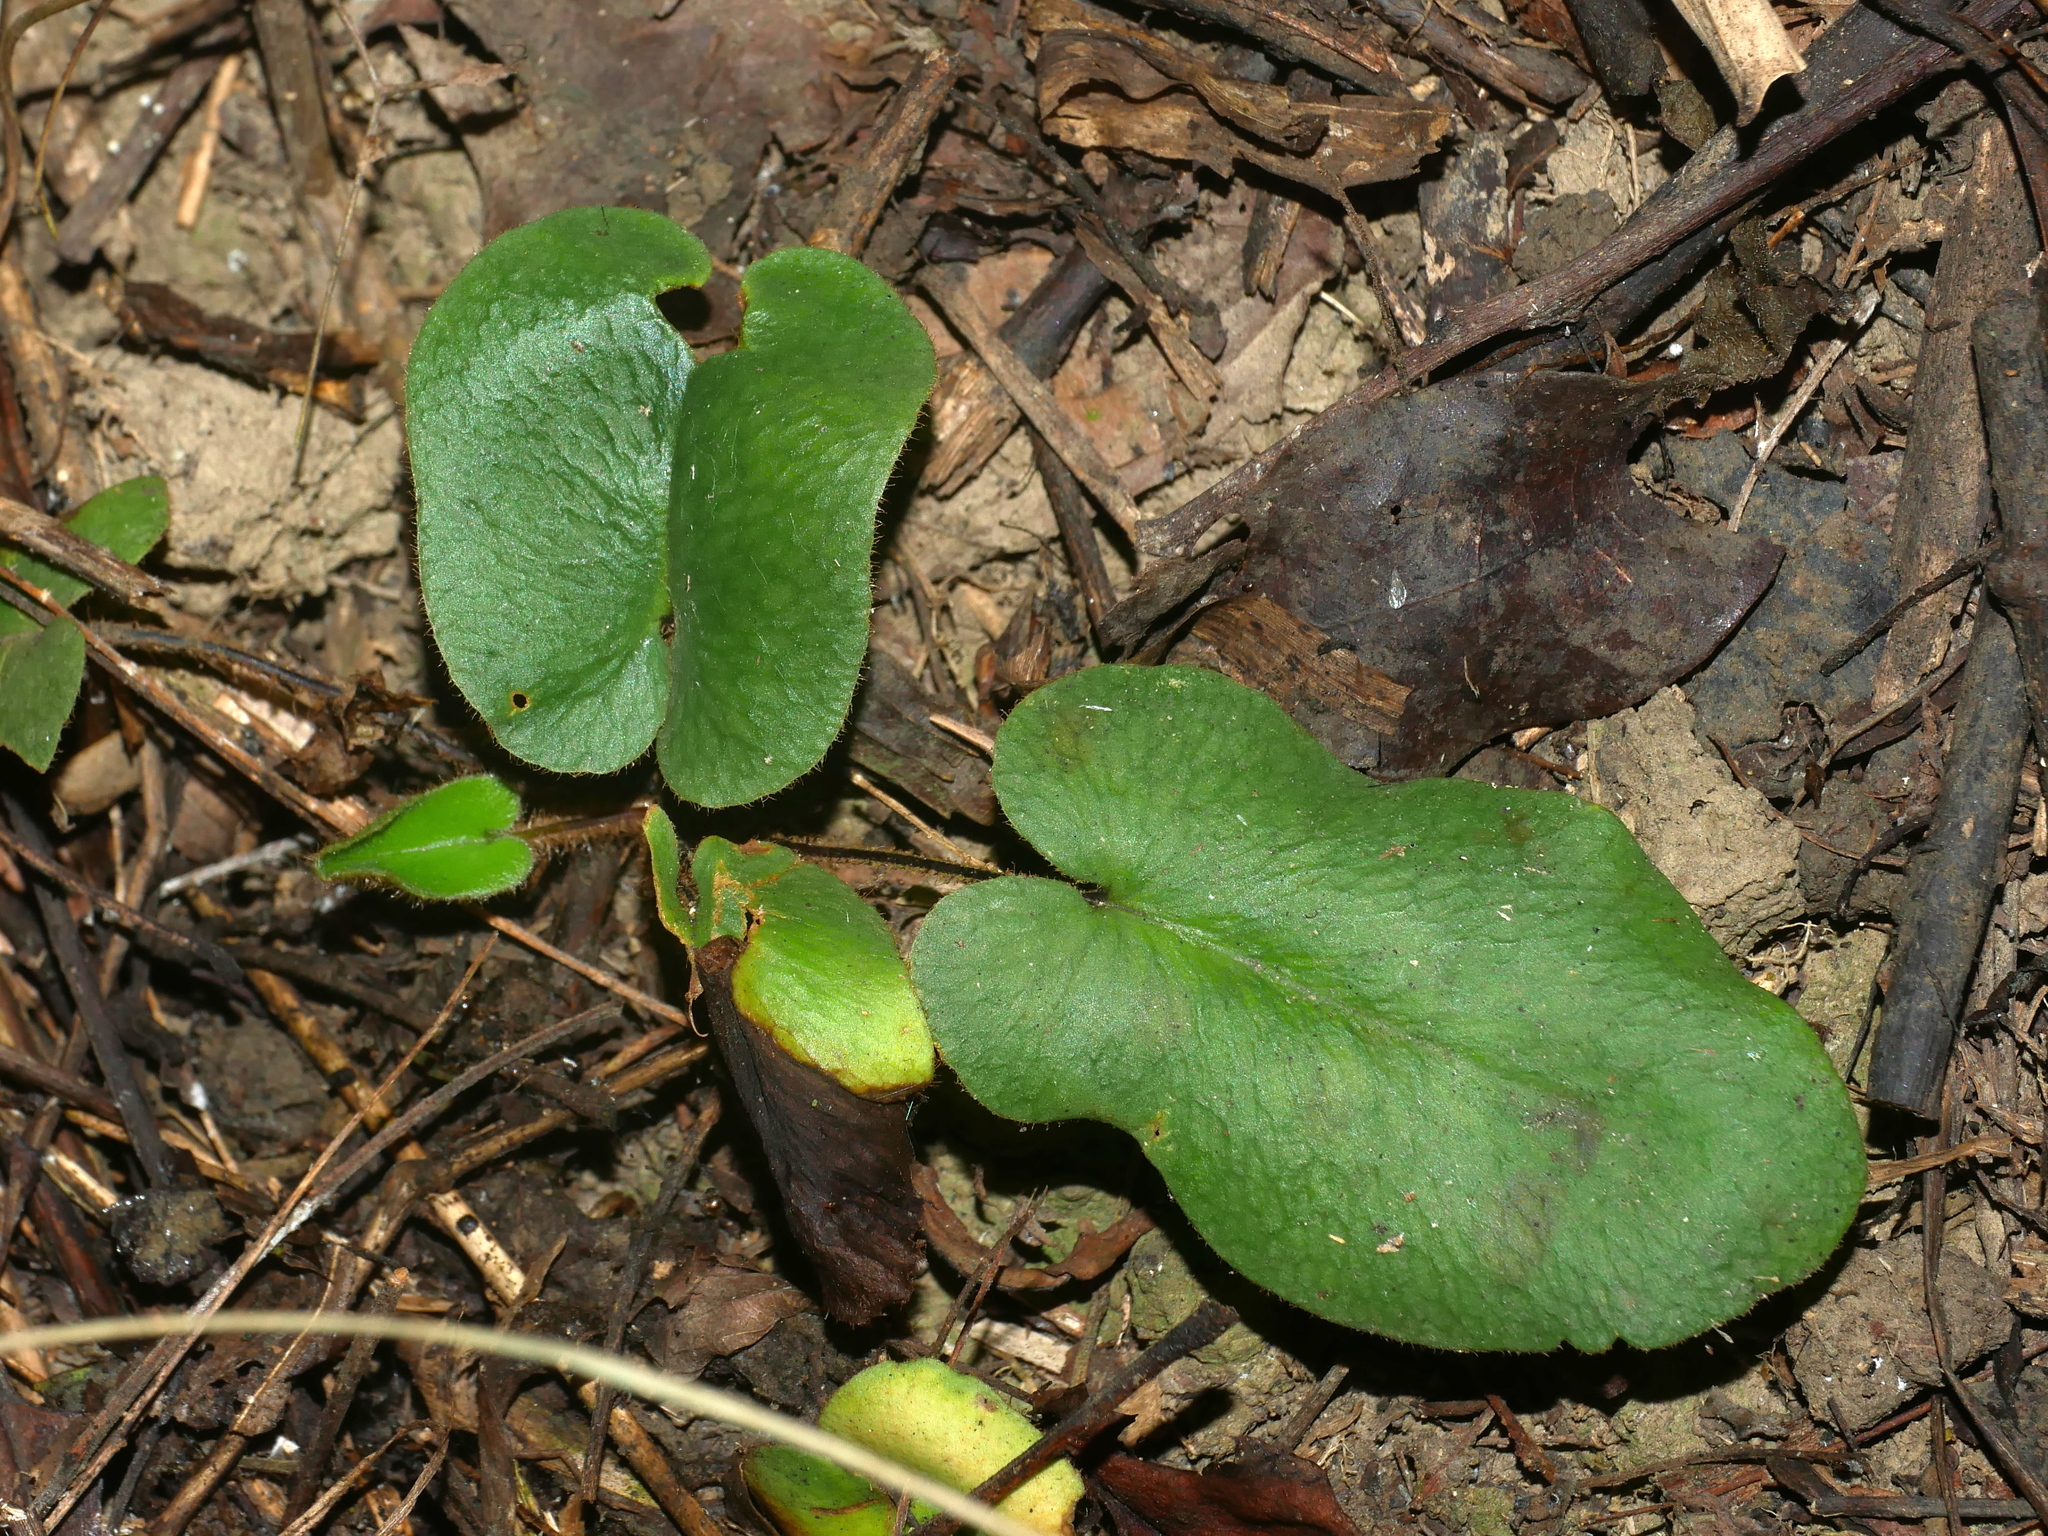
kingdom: Plantae
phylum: Tracheophyta
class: Polypodiopsida
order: Polypodiales
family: Pteridaceae
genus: Mickelopteris
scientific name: Mickelopteris cordata
